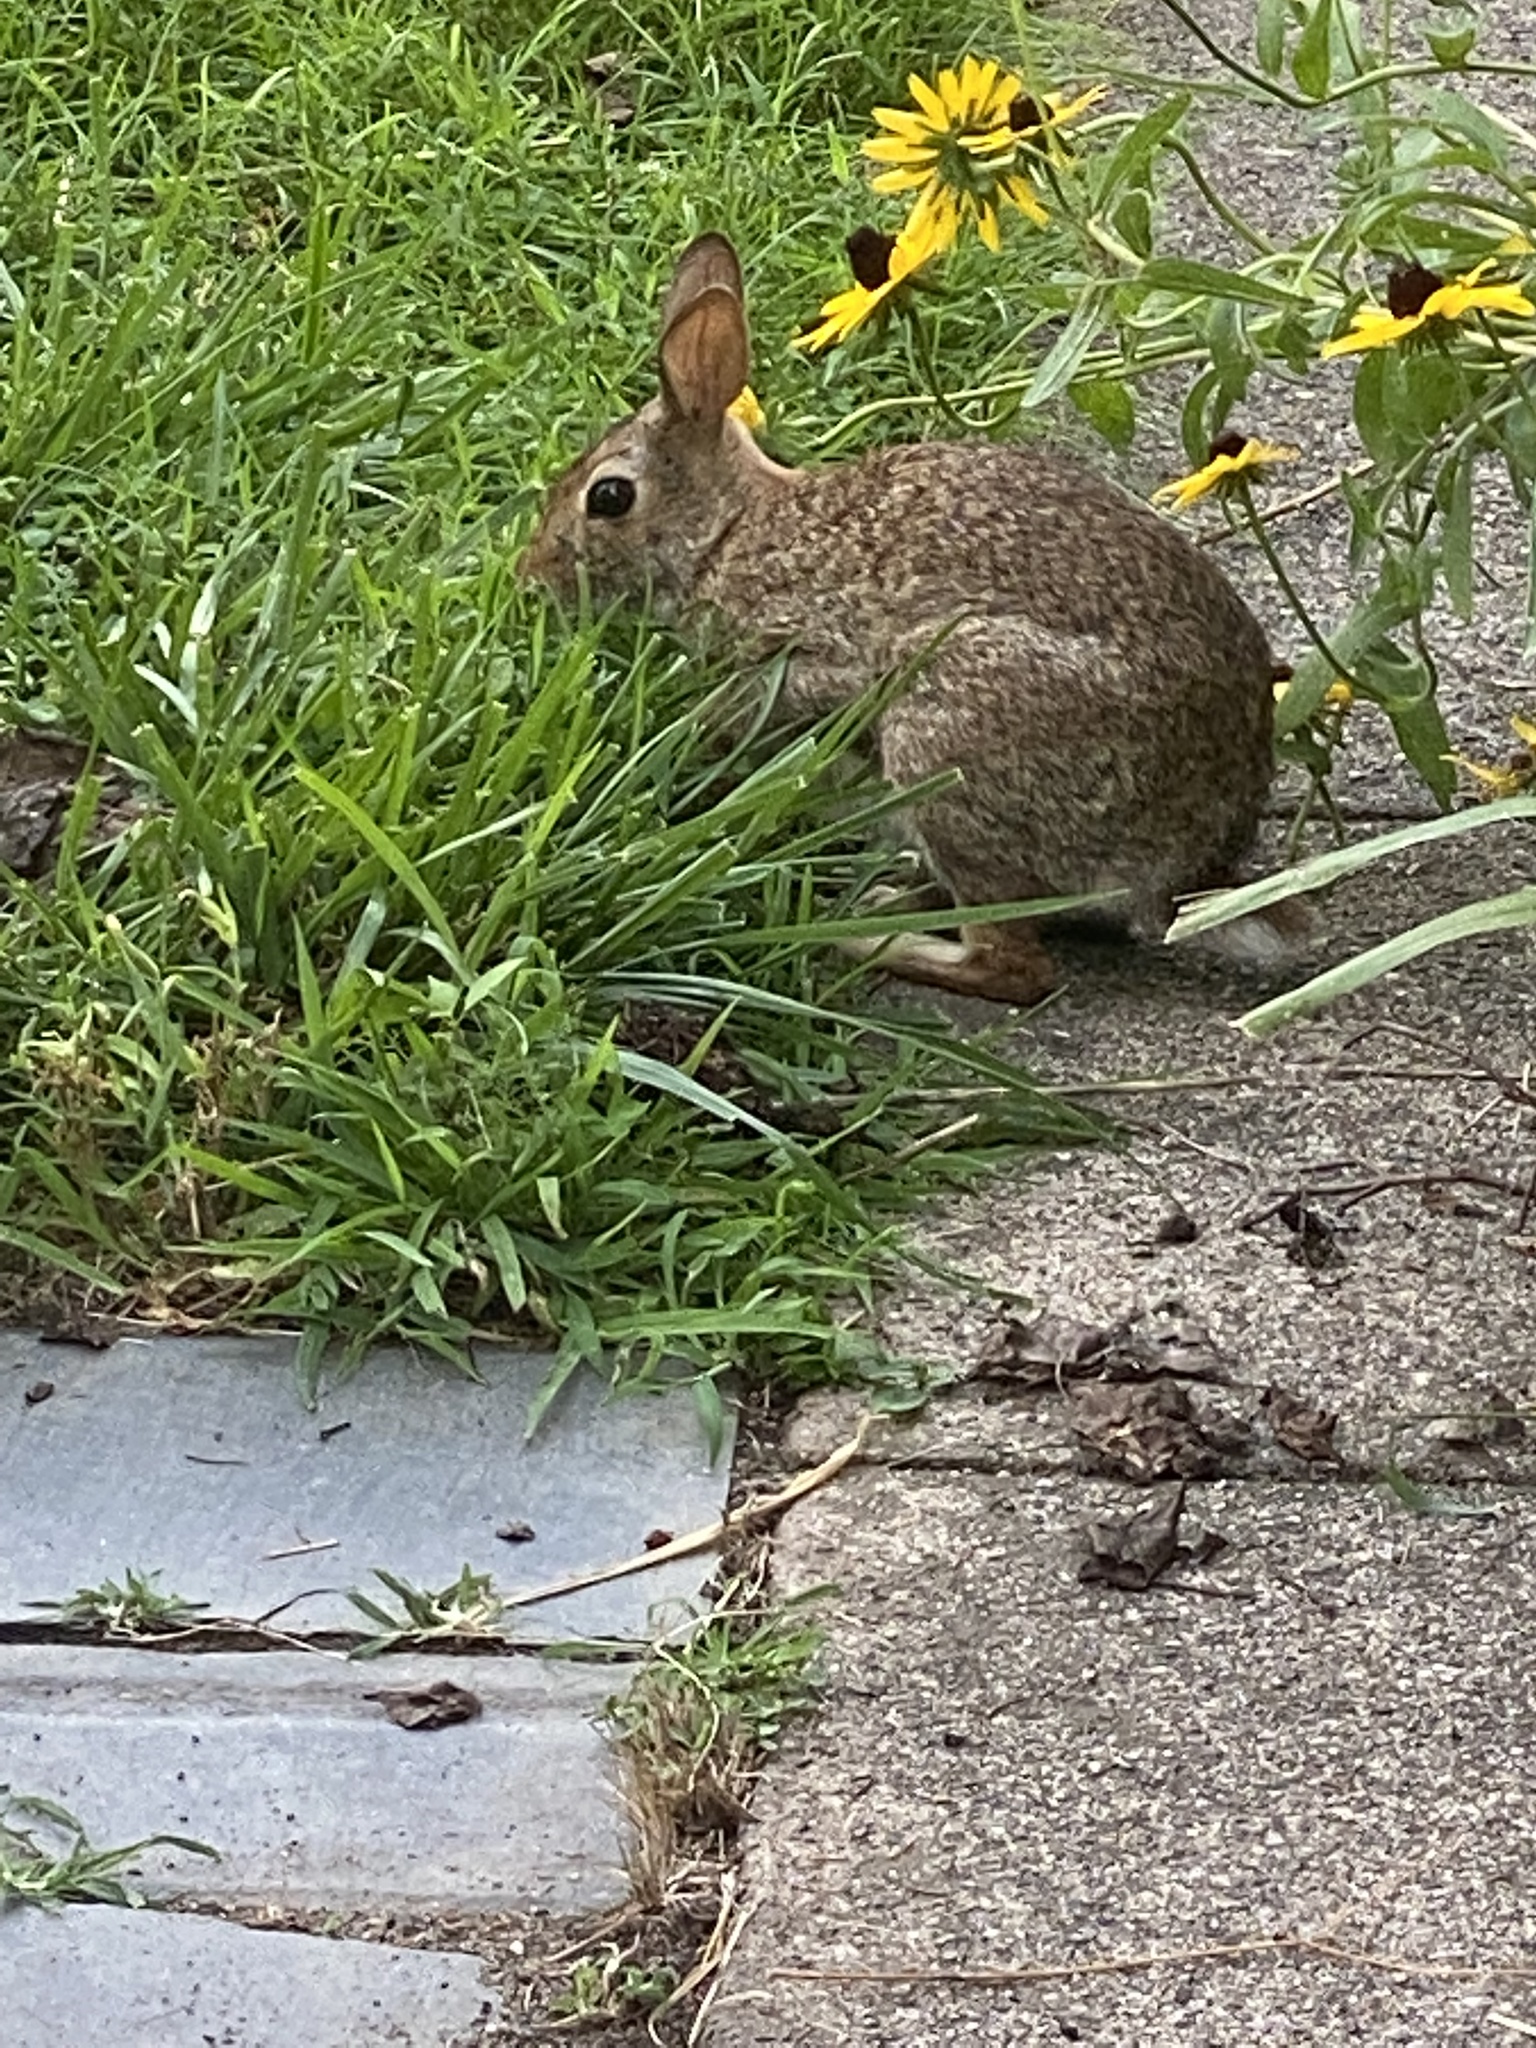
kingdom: Animalia
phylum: Chordata
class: Mammalia
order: Lagomorpha
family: Leporidae
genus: Sylvilagus
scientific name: Sylvilagus floridanus
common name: Eastern cottontail
